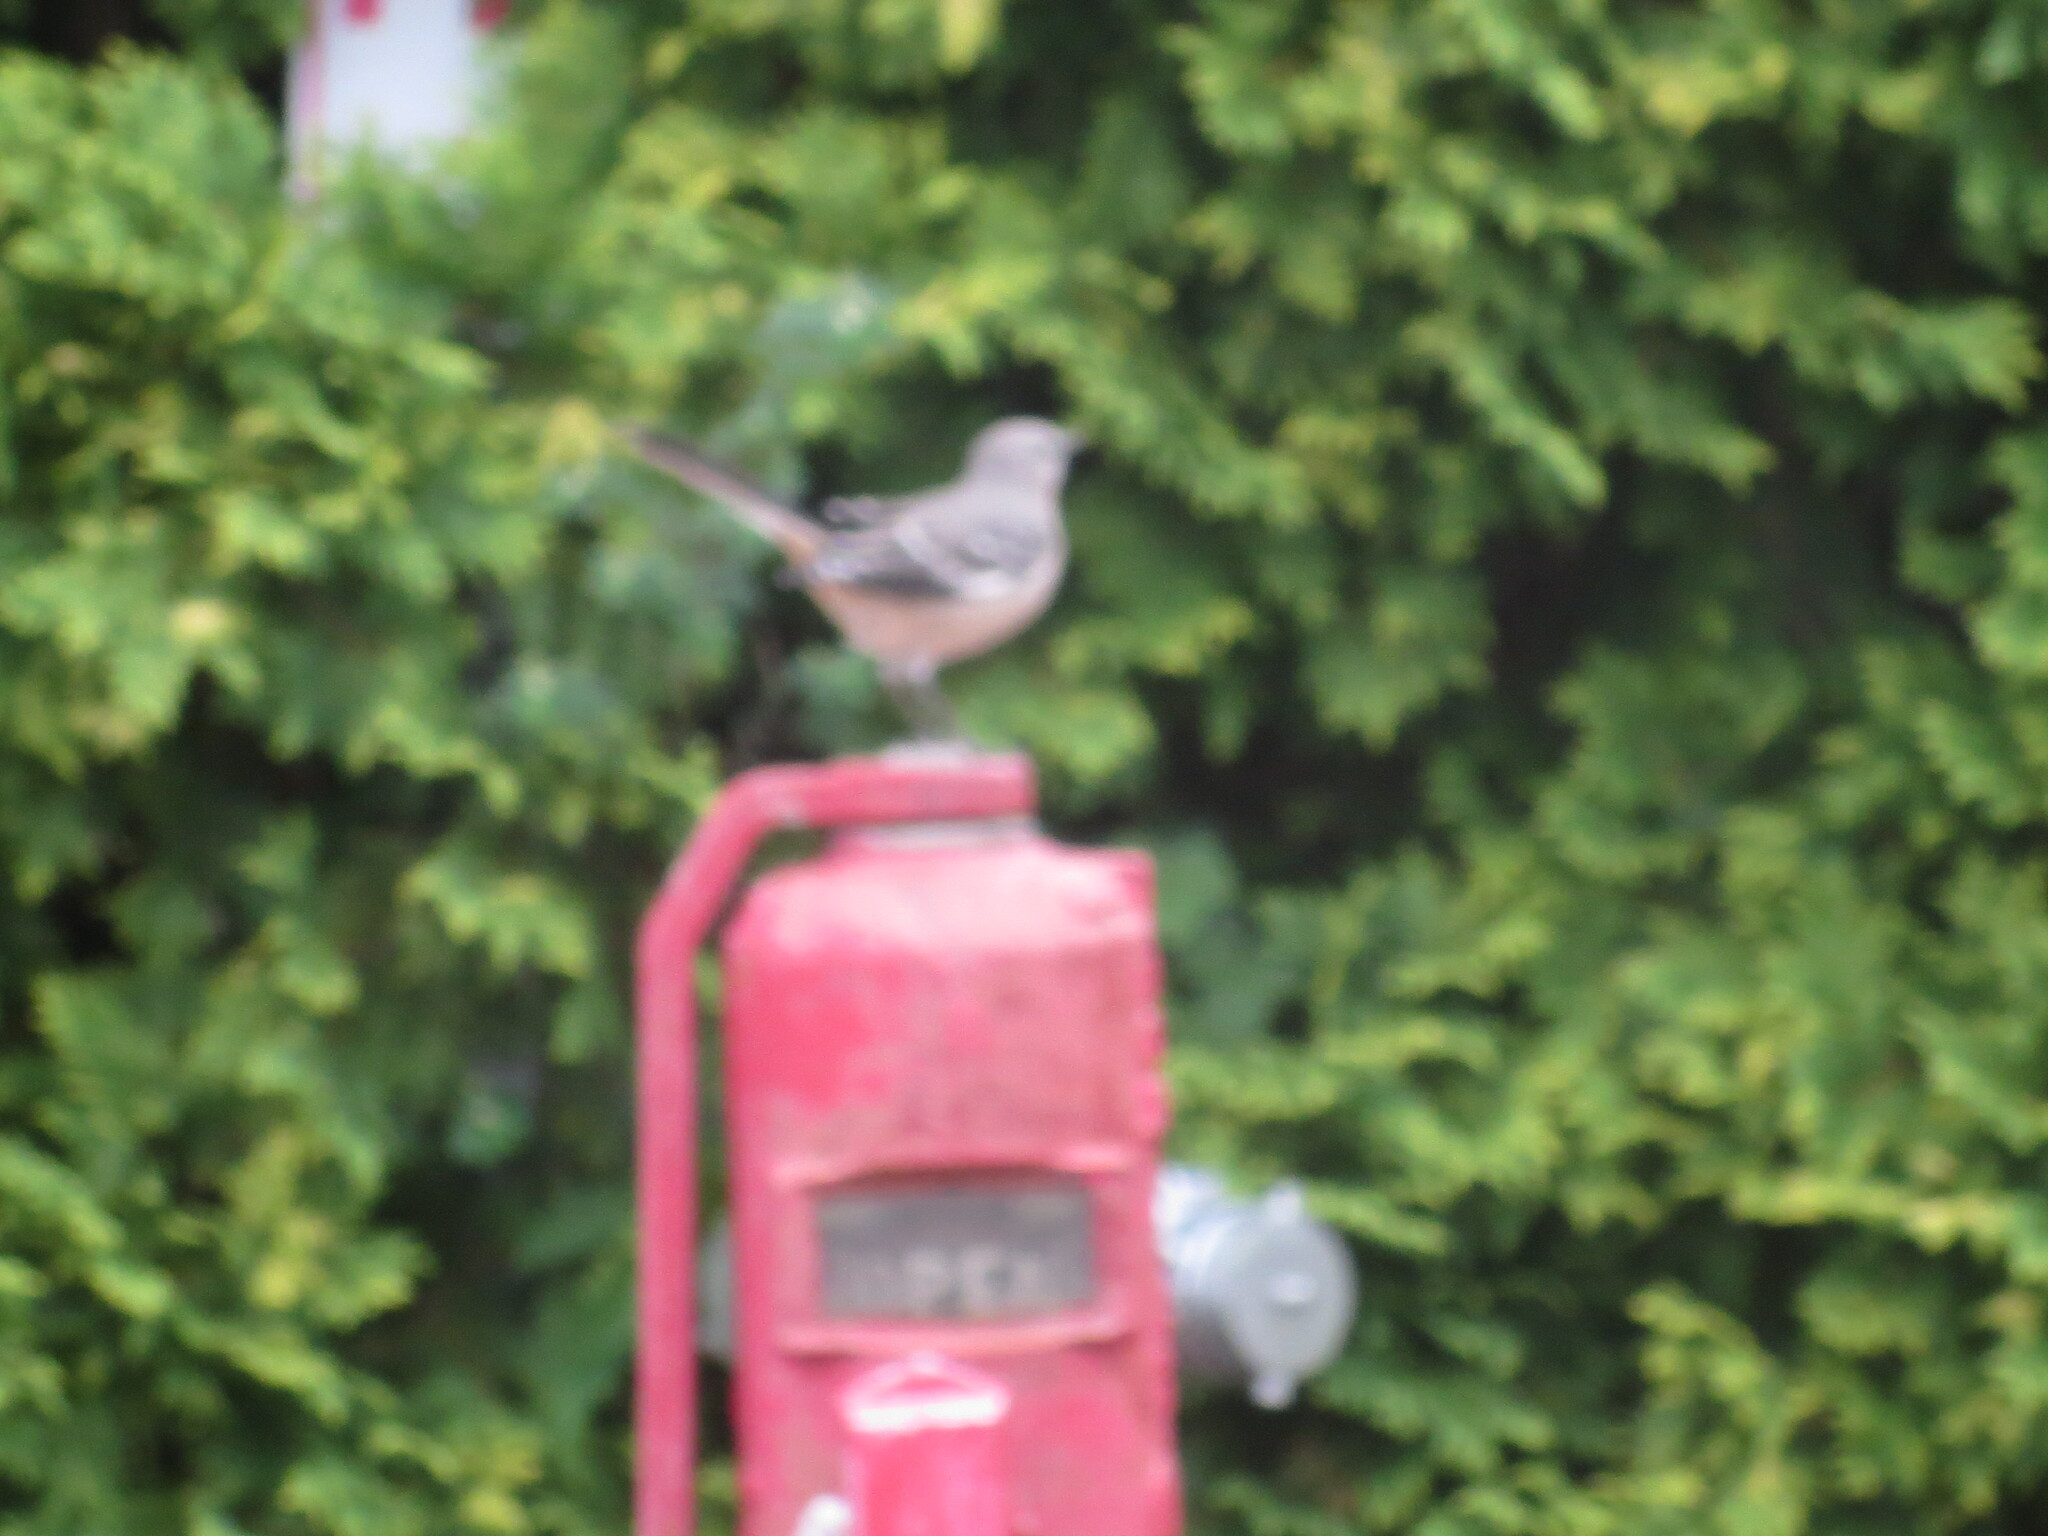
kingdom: Animalia
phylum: Chordata
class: Aves
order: Passeriformes
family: Mimidae
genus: Mimus
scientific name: Mimus polyglottos
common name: Northern mockingbird
